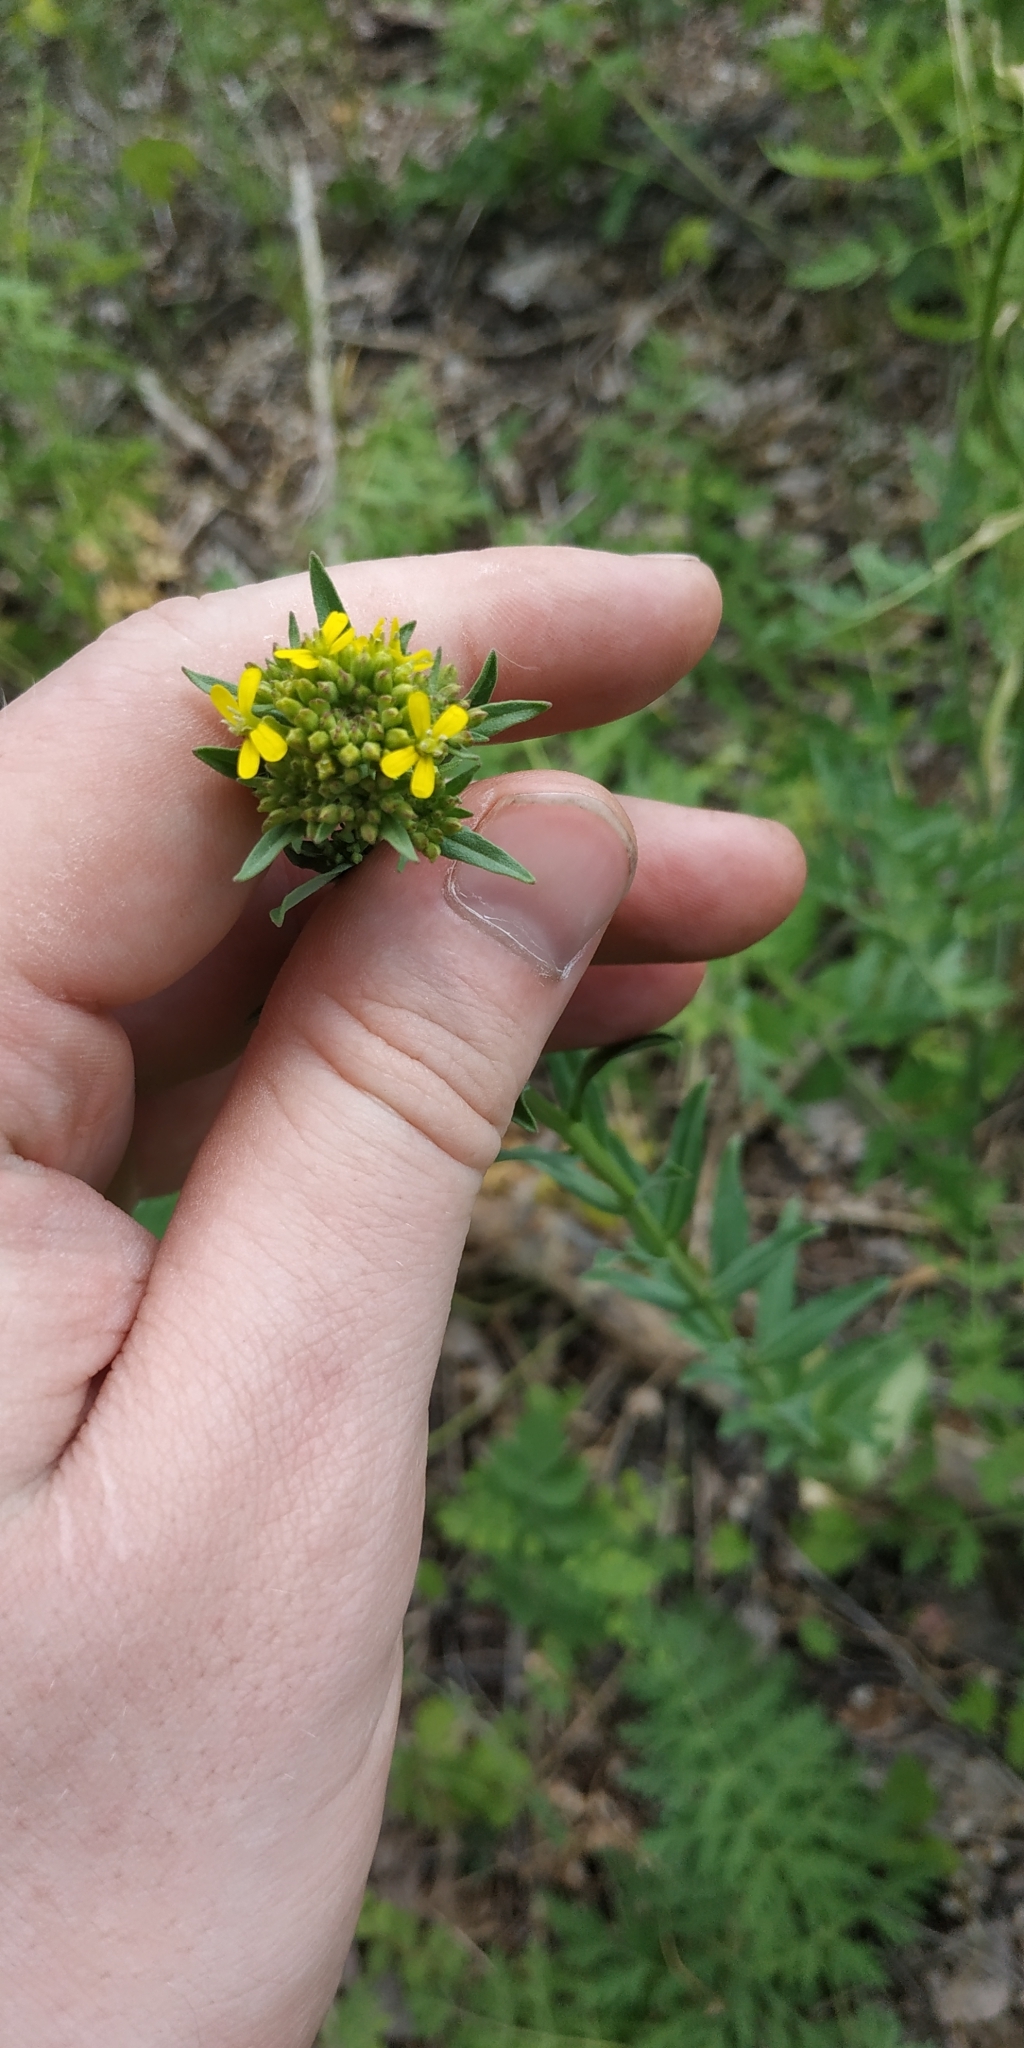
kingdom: Plantae
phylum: Tracheophyta
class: Magnoliopsida
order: Brassicales
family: Brassicaceae
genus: Erysimum
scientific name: Erysimum cheiranthoides
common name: Treacle mustard
